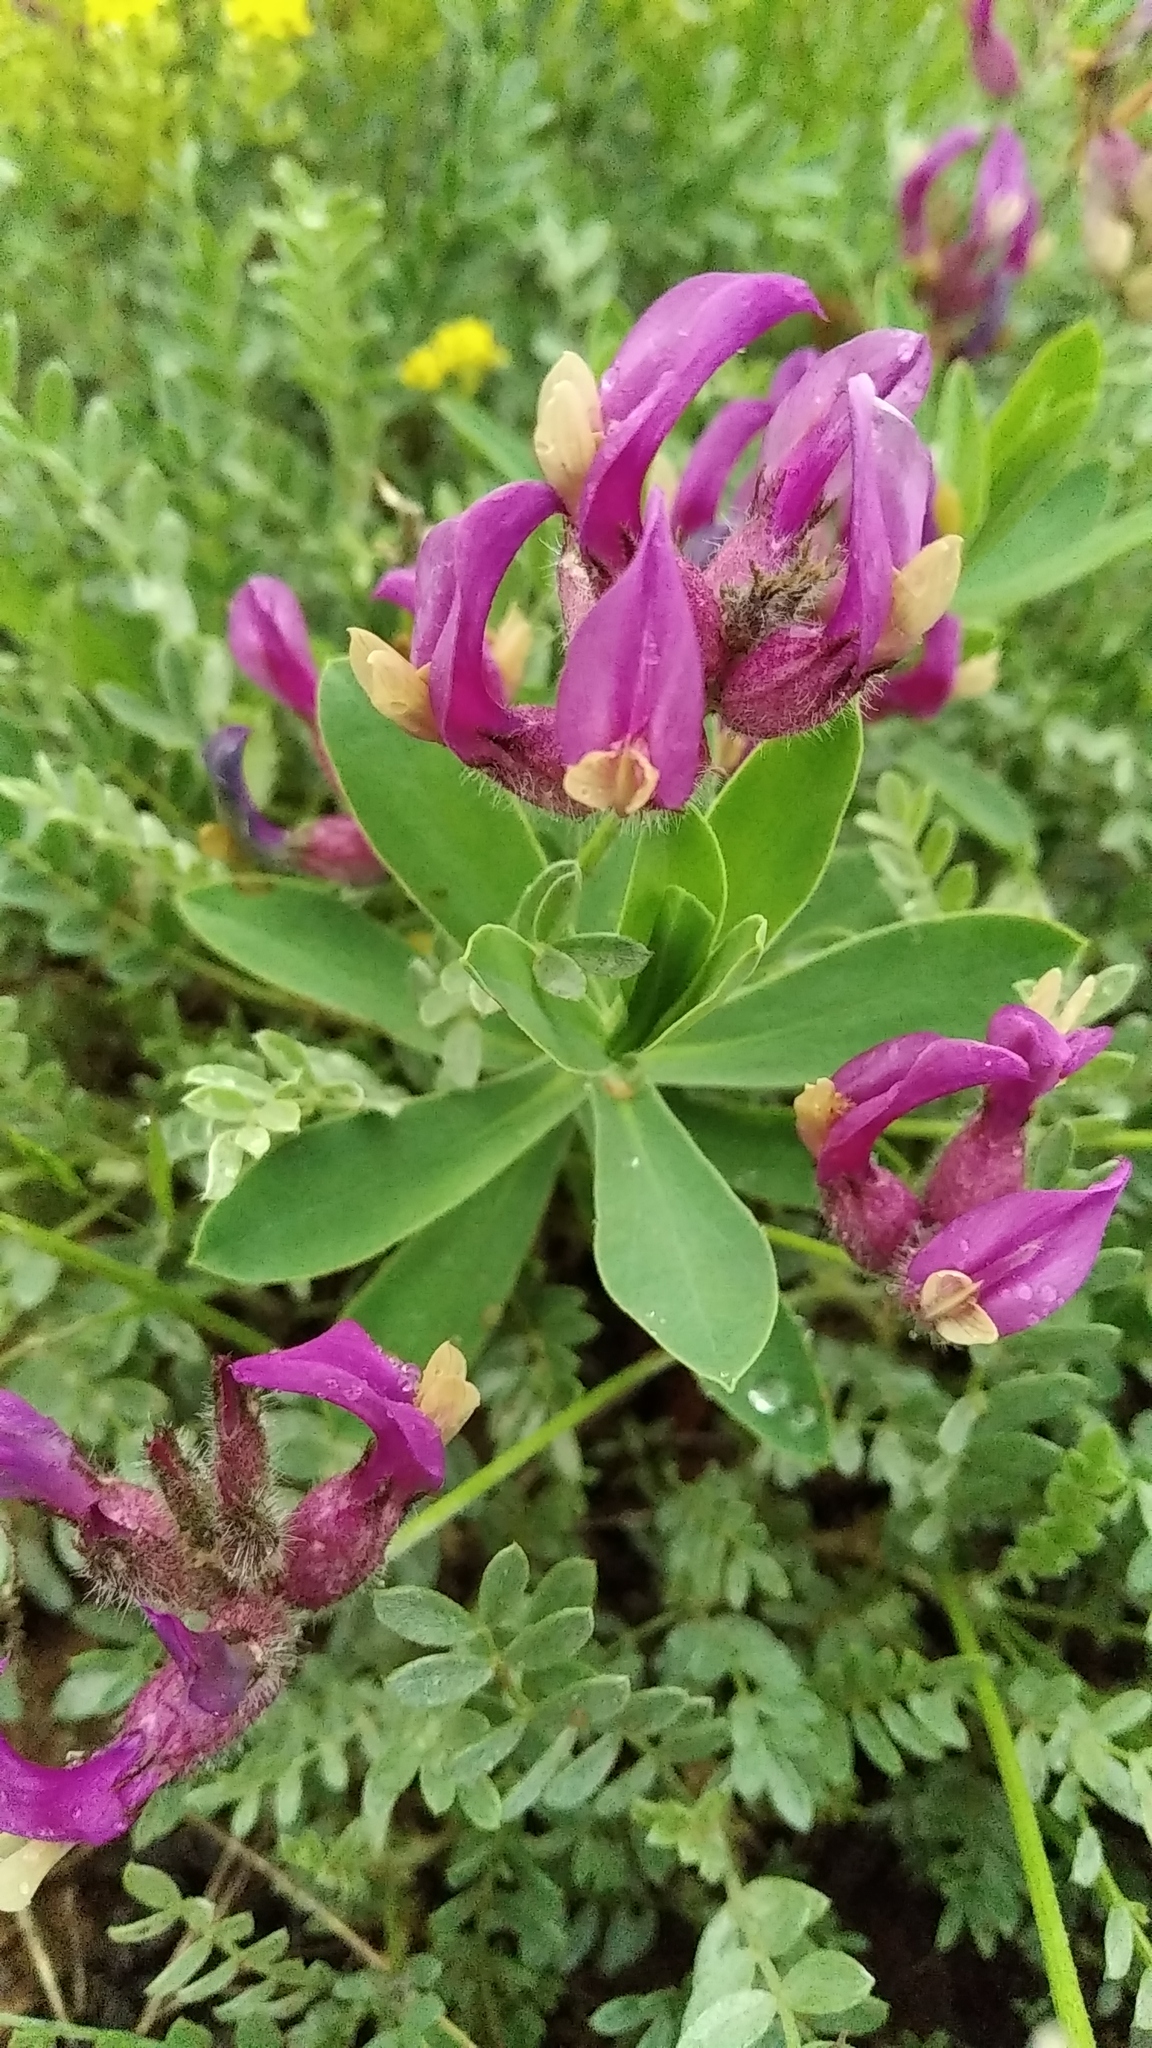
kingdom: Plantae
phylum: Tracheophyta
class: Magnoliopsida
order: Fabales
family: Fabaceae
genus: Astragalus
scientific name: Astragalus vesicarius
